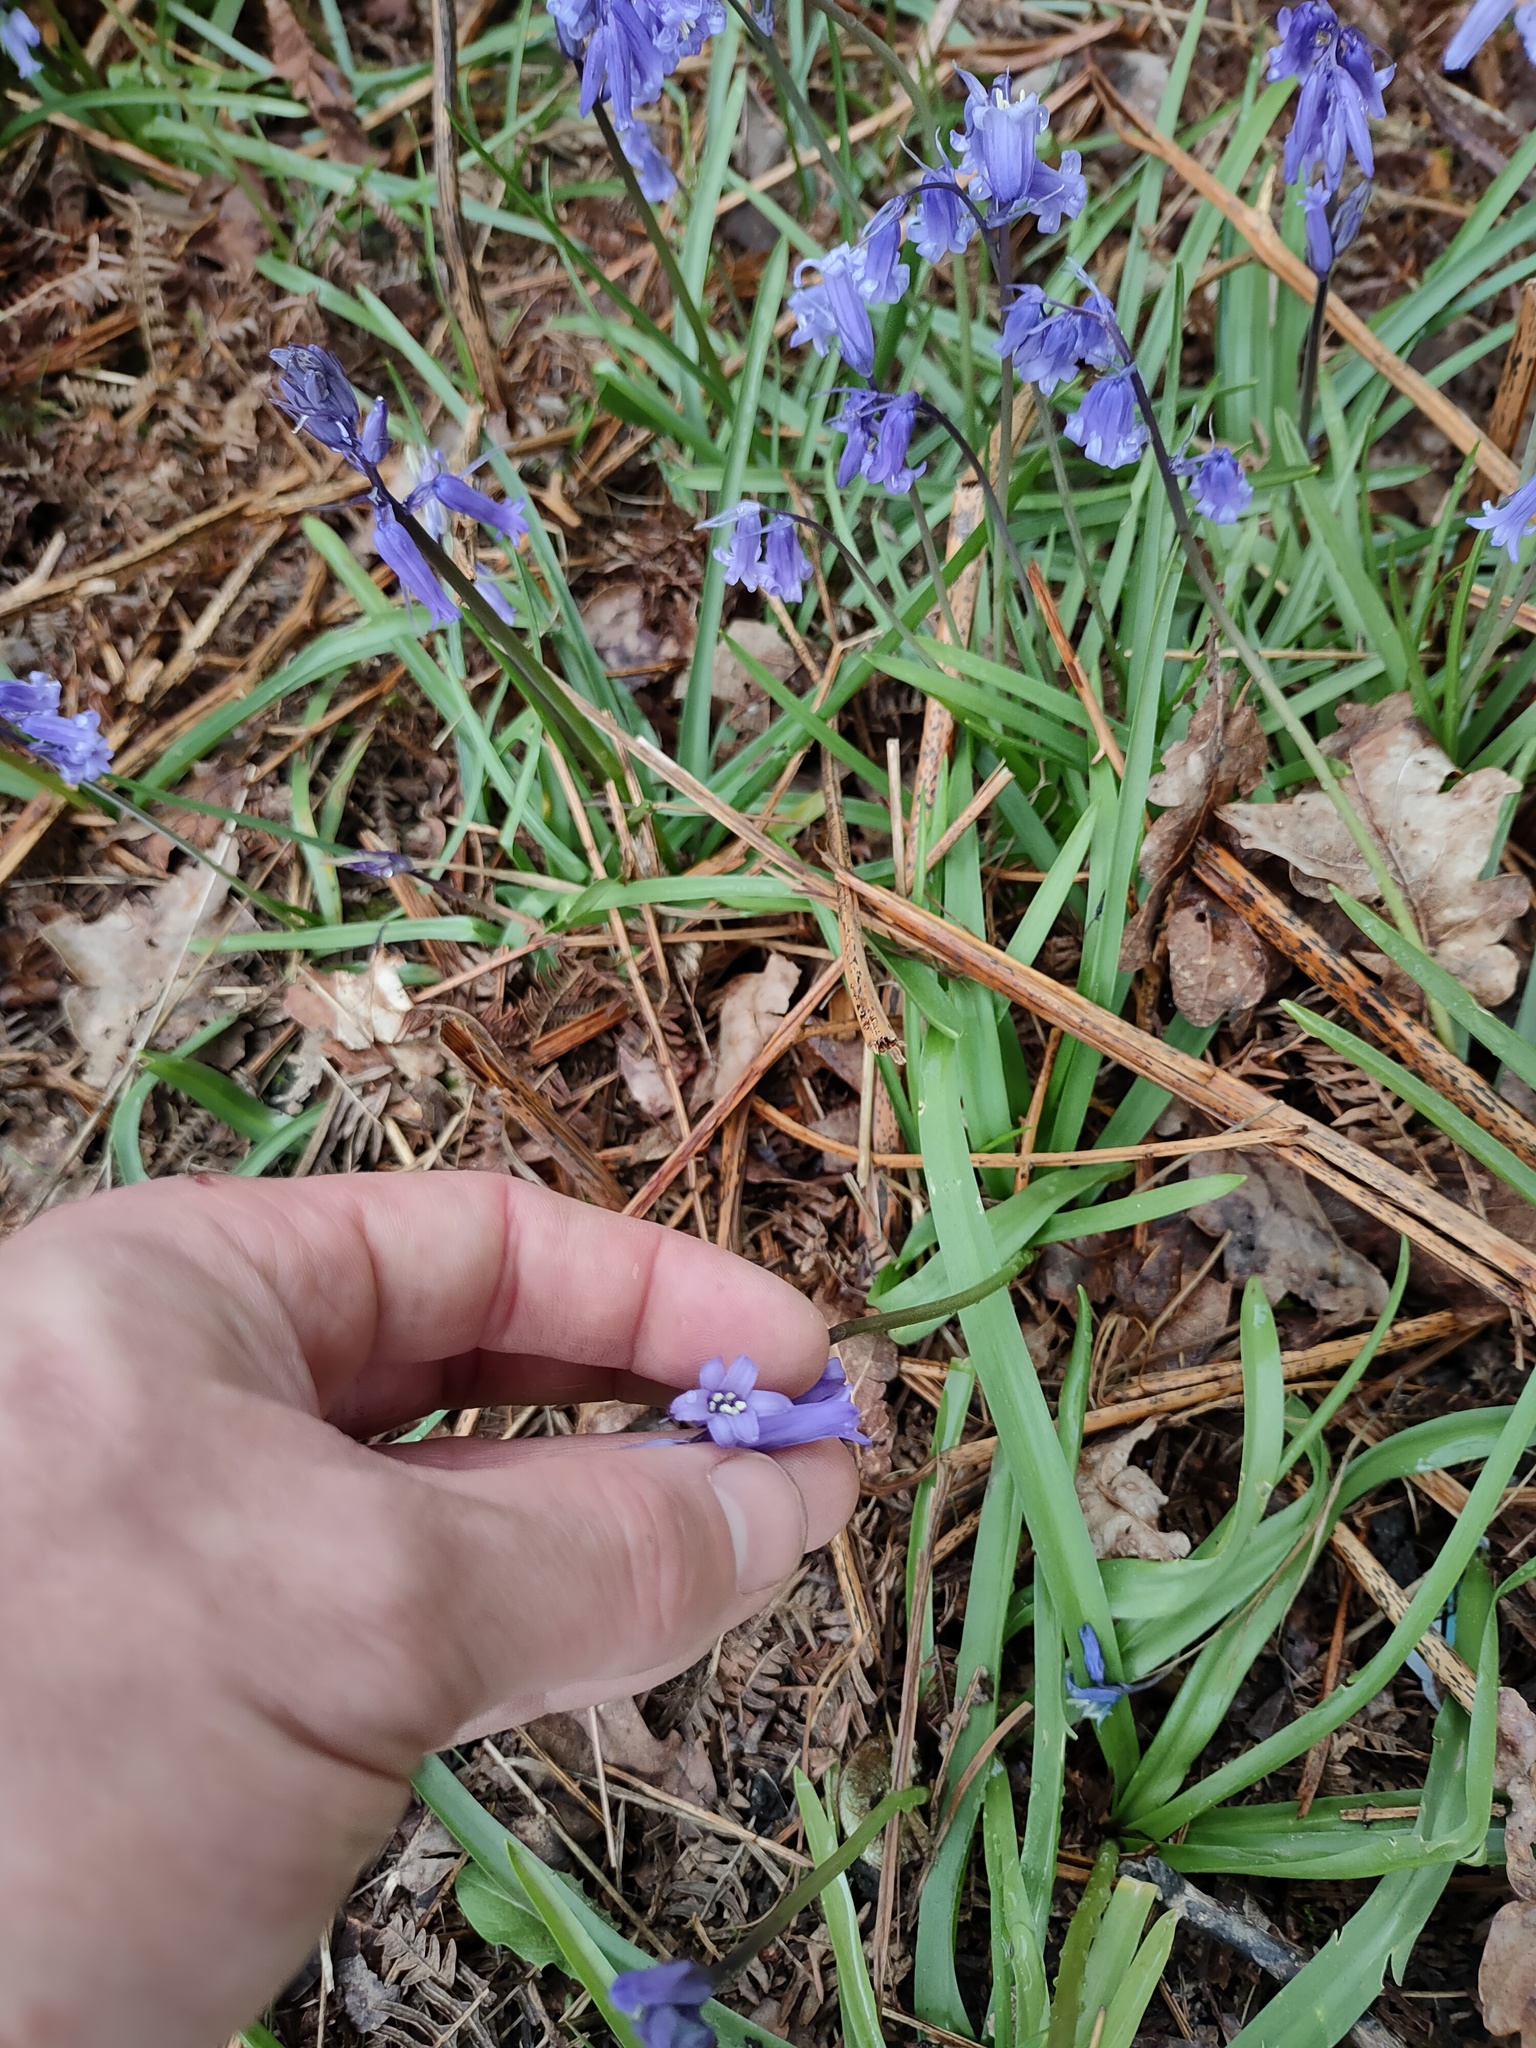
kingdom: Plantae
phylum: Tracheophyta
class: Liliopsida
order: Asparagales
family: Asparagaceae
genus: Hyacinthoides
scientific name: Hyacinthoides non-scripta
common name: Bluebell
